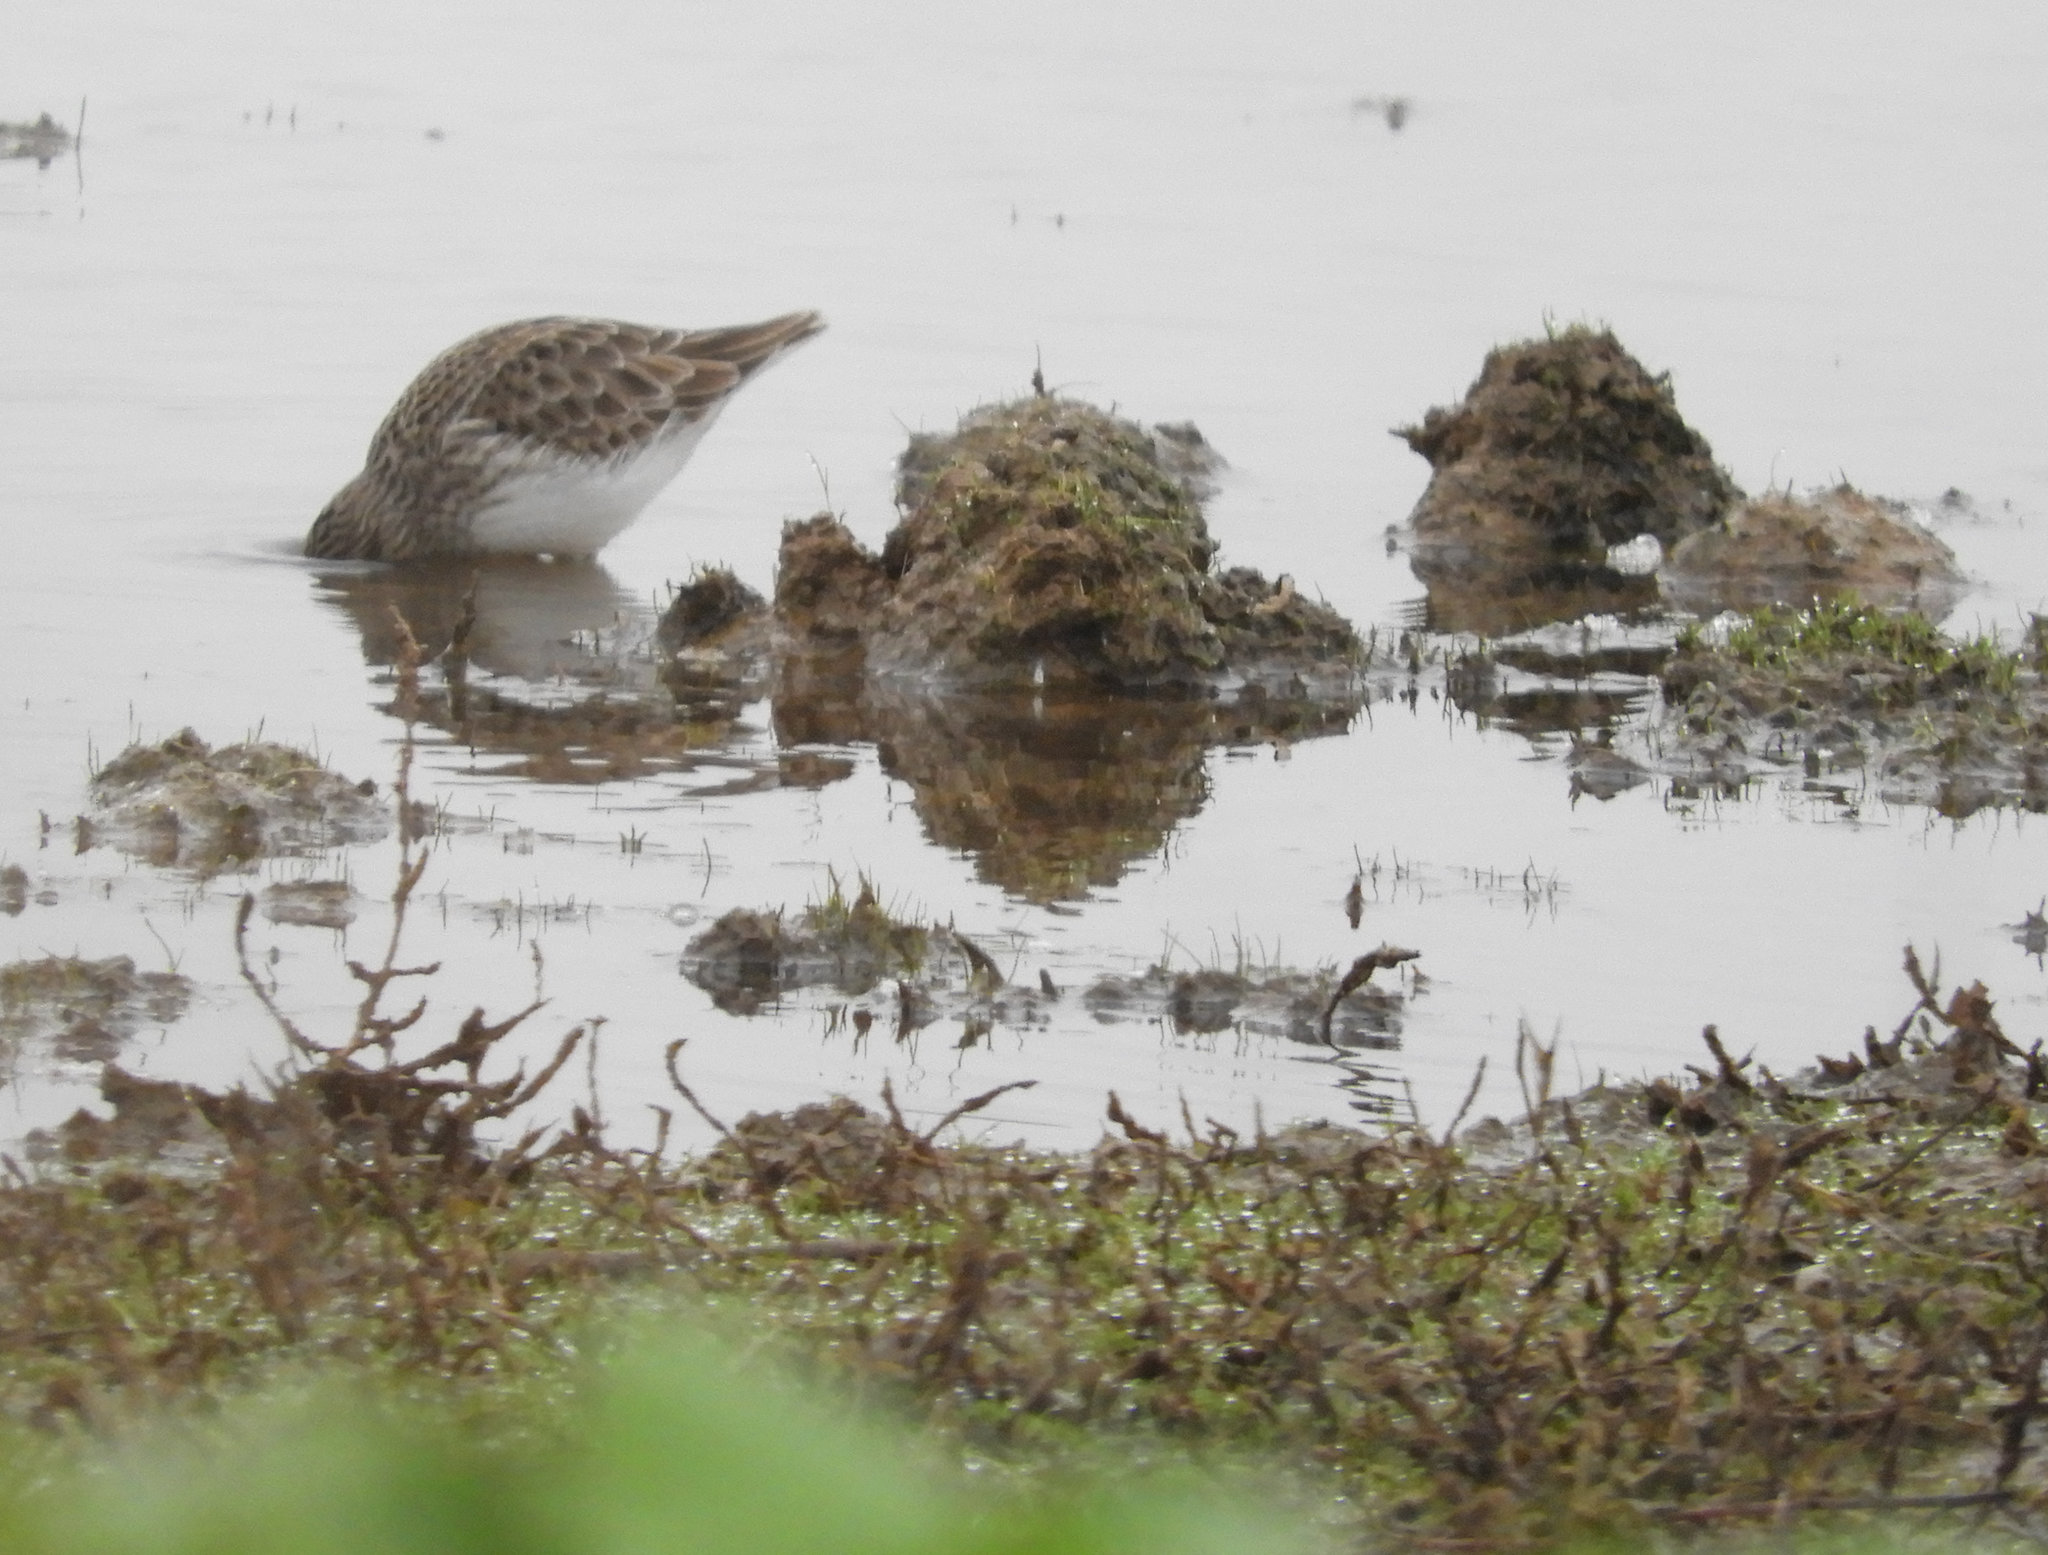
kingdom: Animalia
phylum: Chordata
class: Aves
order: Charadriiformes
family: Scolopacidae
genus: Calidris
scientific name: Calidris minutilla
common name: Least sandpiper
